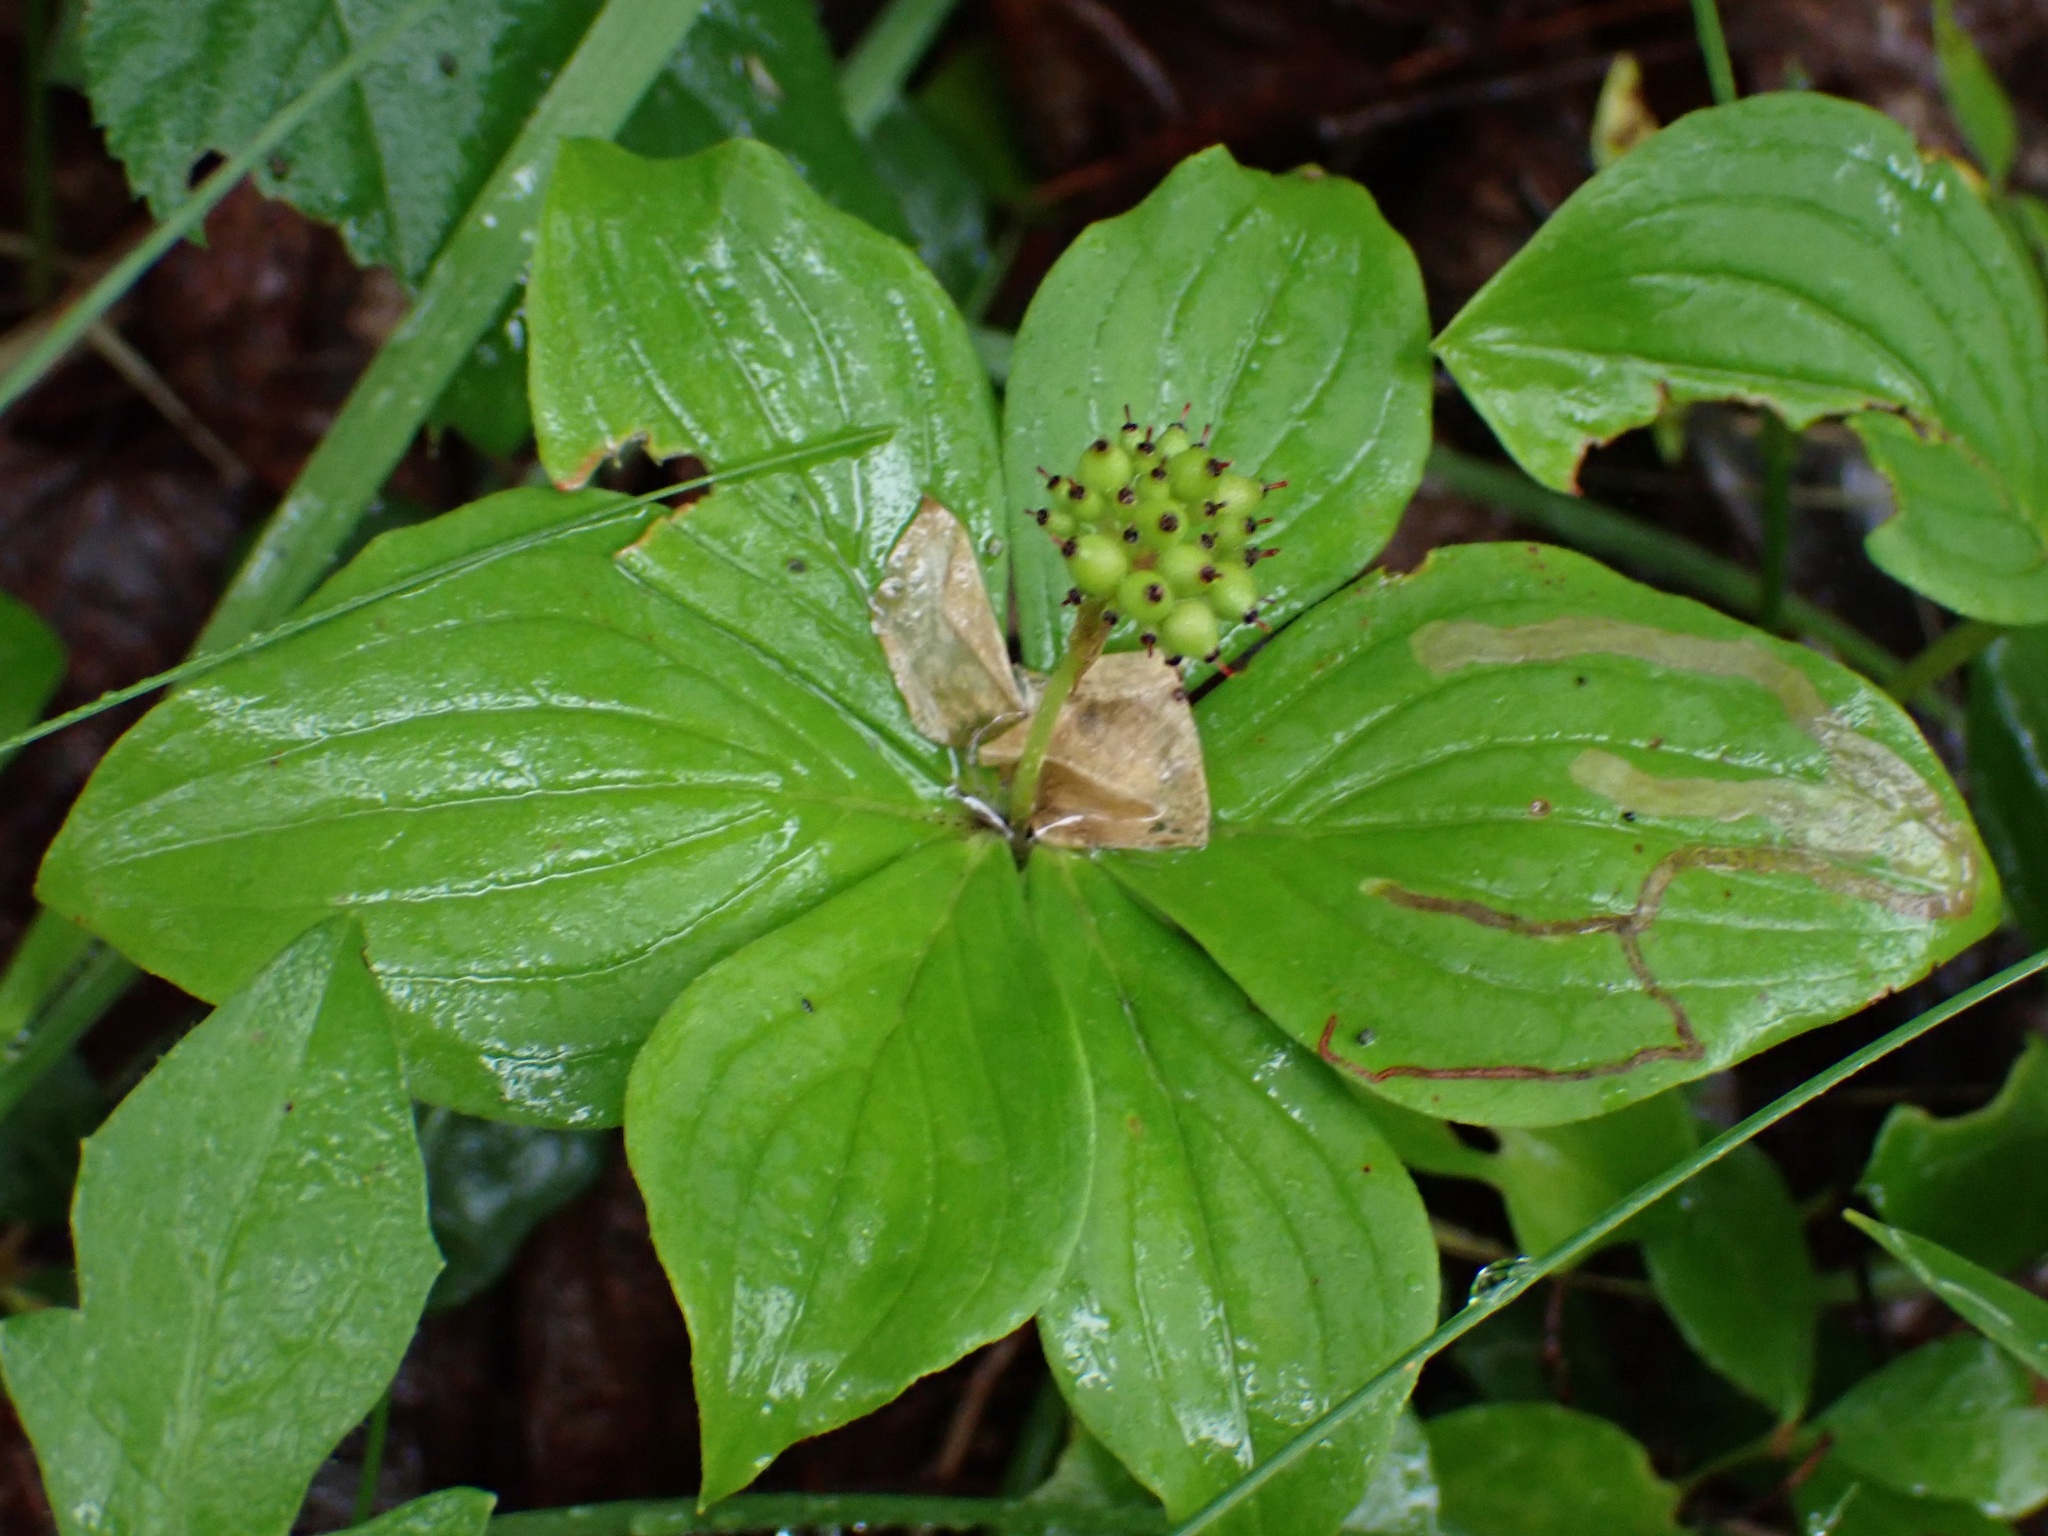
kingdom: Plantae
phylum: Tracheophyta
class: Magnoliopsida
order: Cornales
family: Cornaceae
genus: Cornus
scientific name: Cornus canadensis
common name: Creeping dogwood
